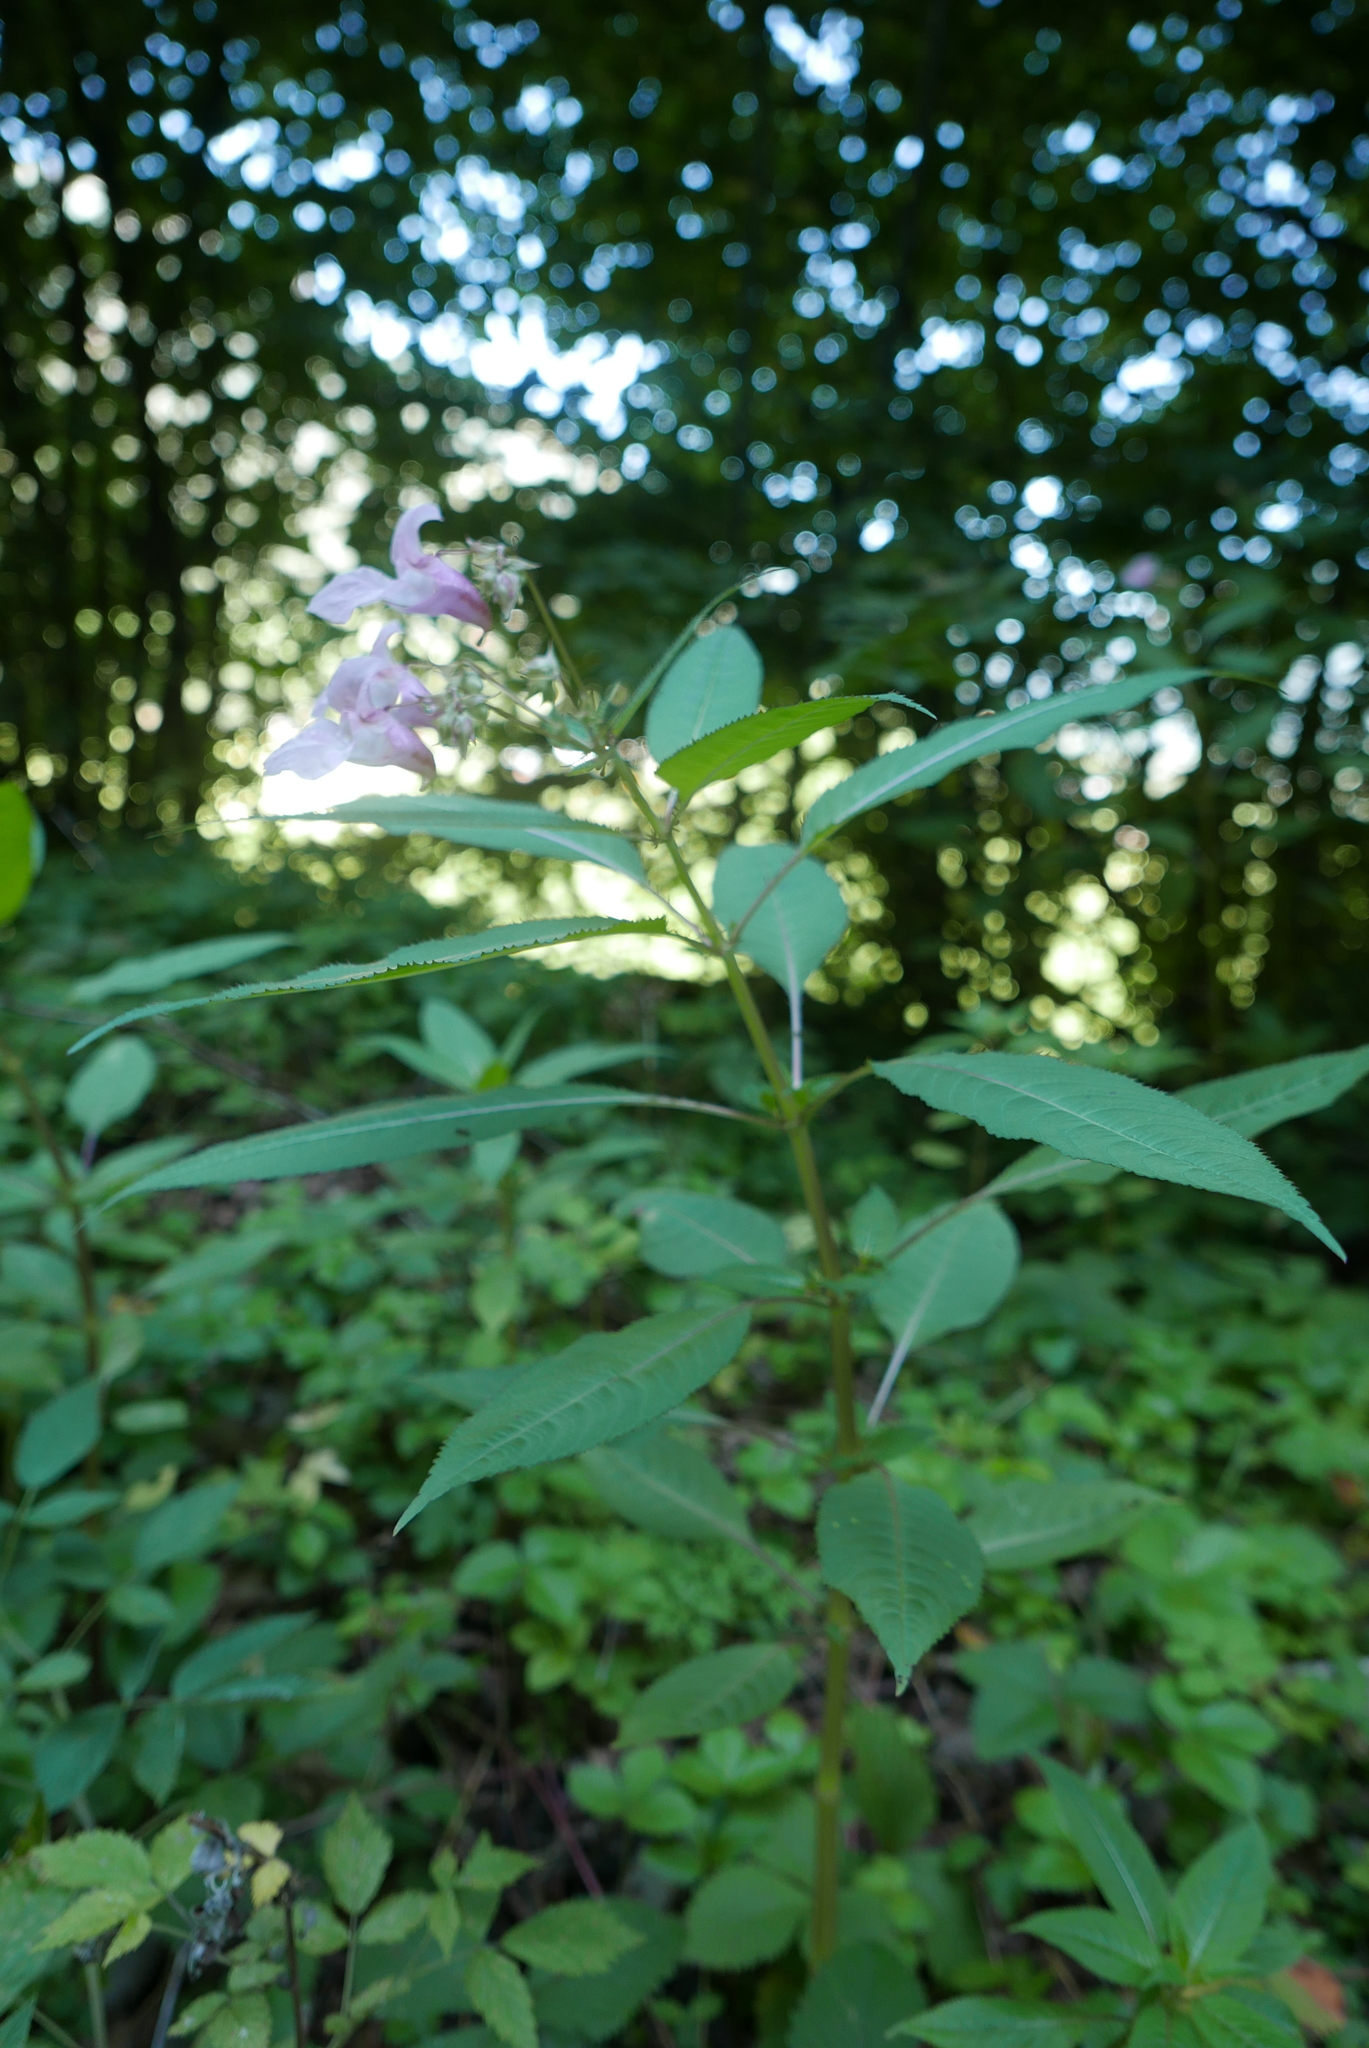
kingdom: Plantae
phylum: Tracheophyta
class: Magnoliopsida
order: Ericales
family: Balsaminaceae
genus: Impatiens
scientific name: Impatiens glandulifera
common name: Himalayan balsam
